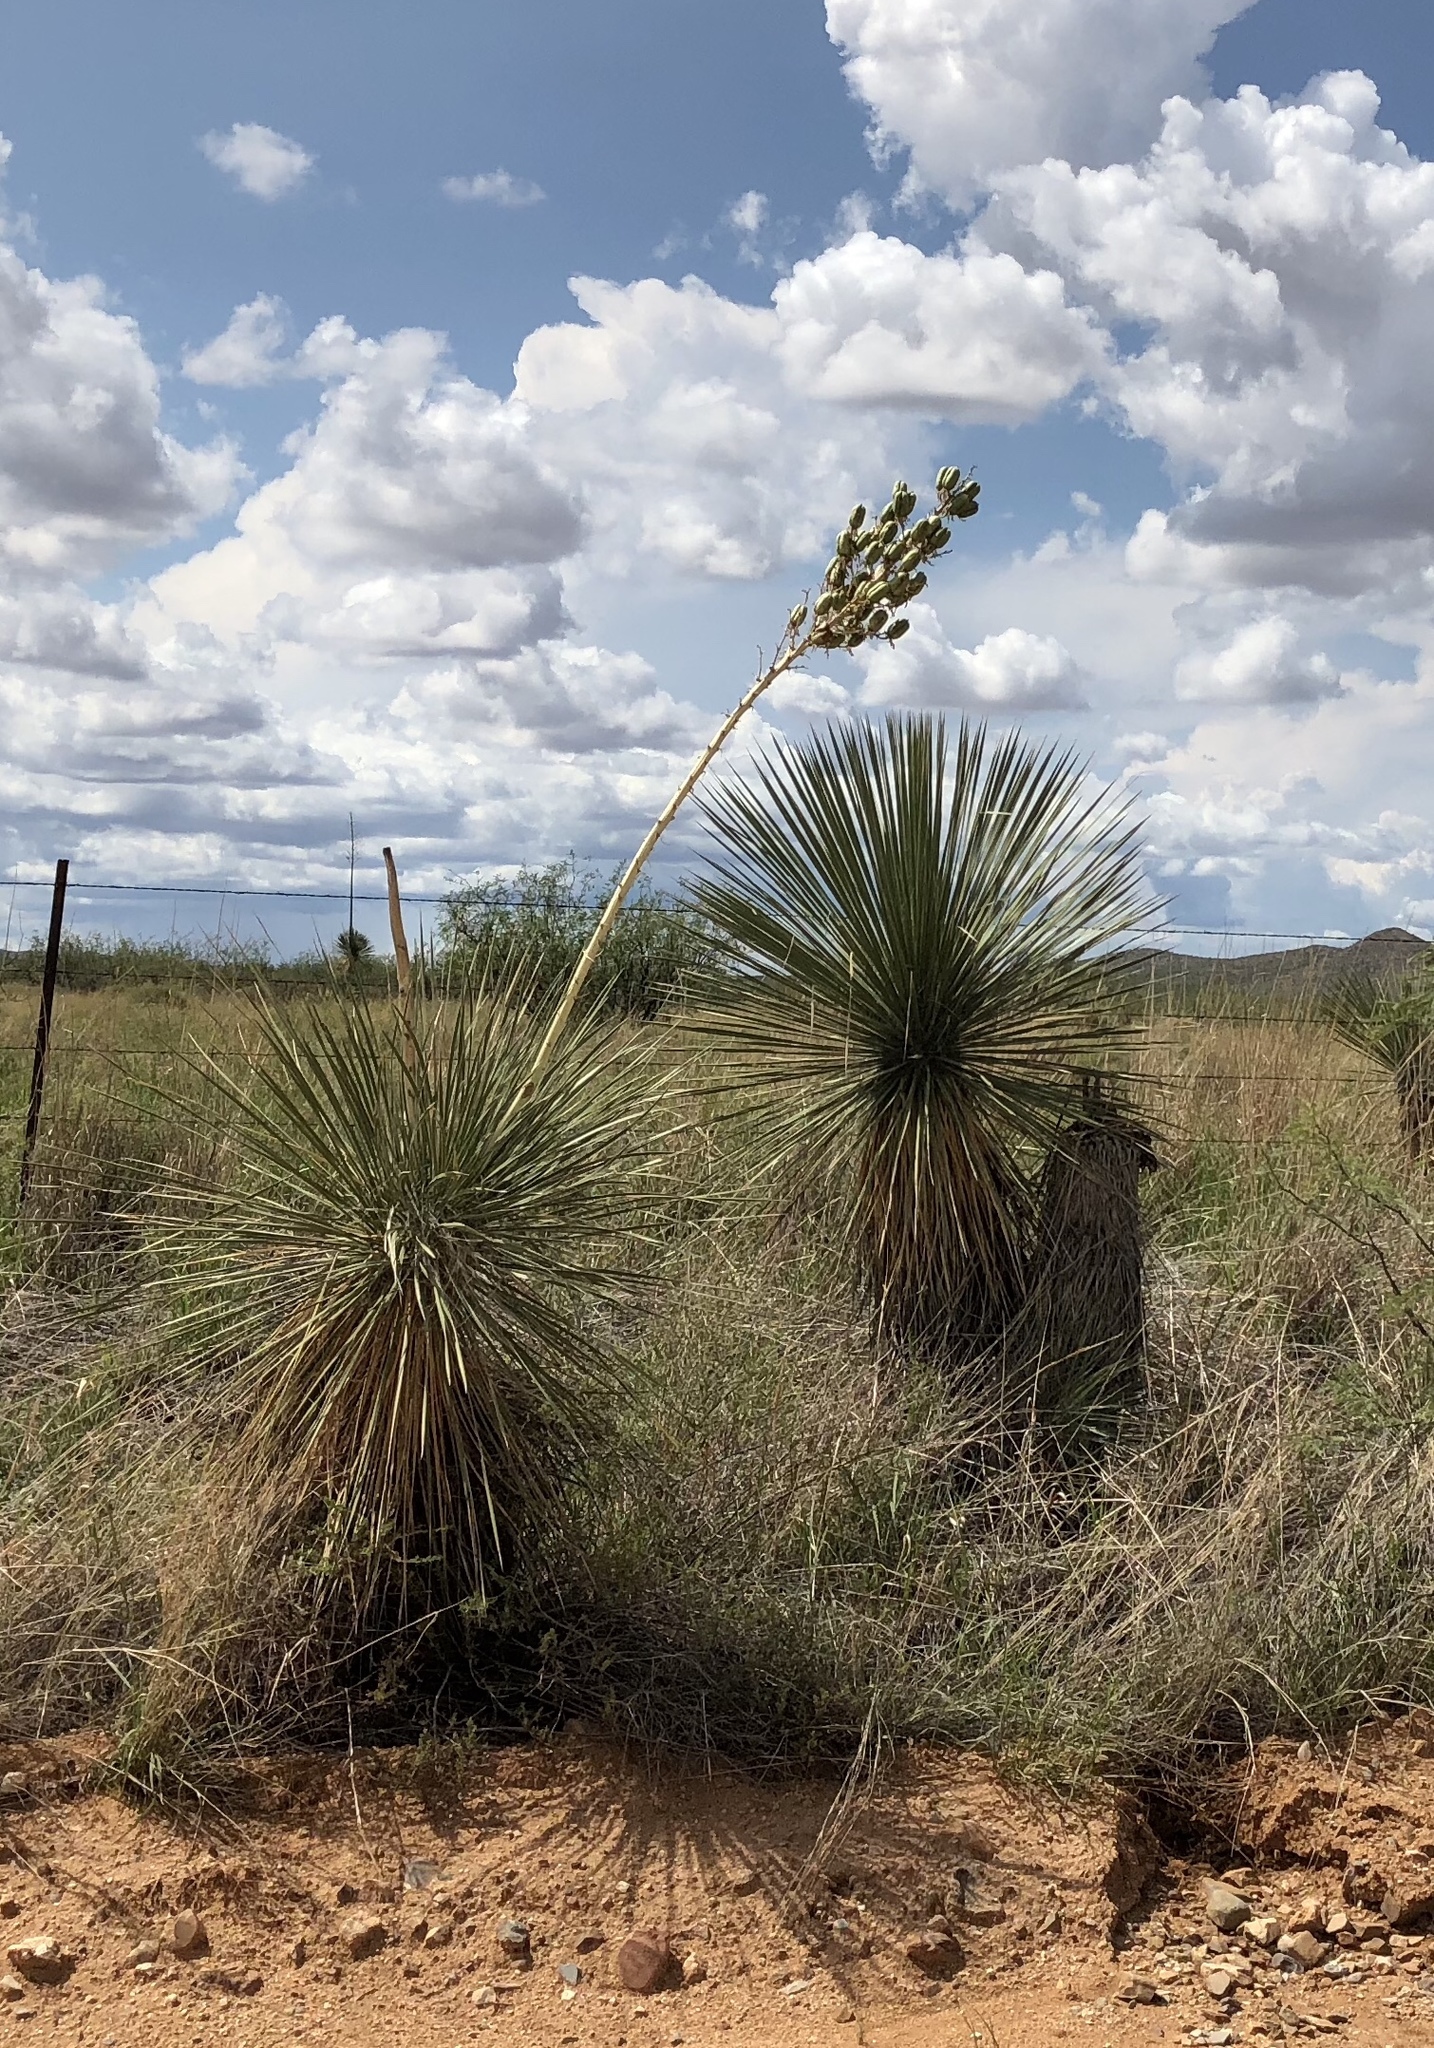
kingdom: Plantae
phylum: Tracheophyta
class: Liliopsida
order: Asparagales
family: Asparagaceae
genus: Yucca
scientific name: Yucca elata
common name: Palmella
